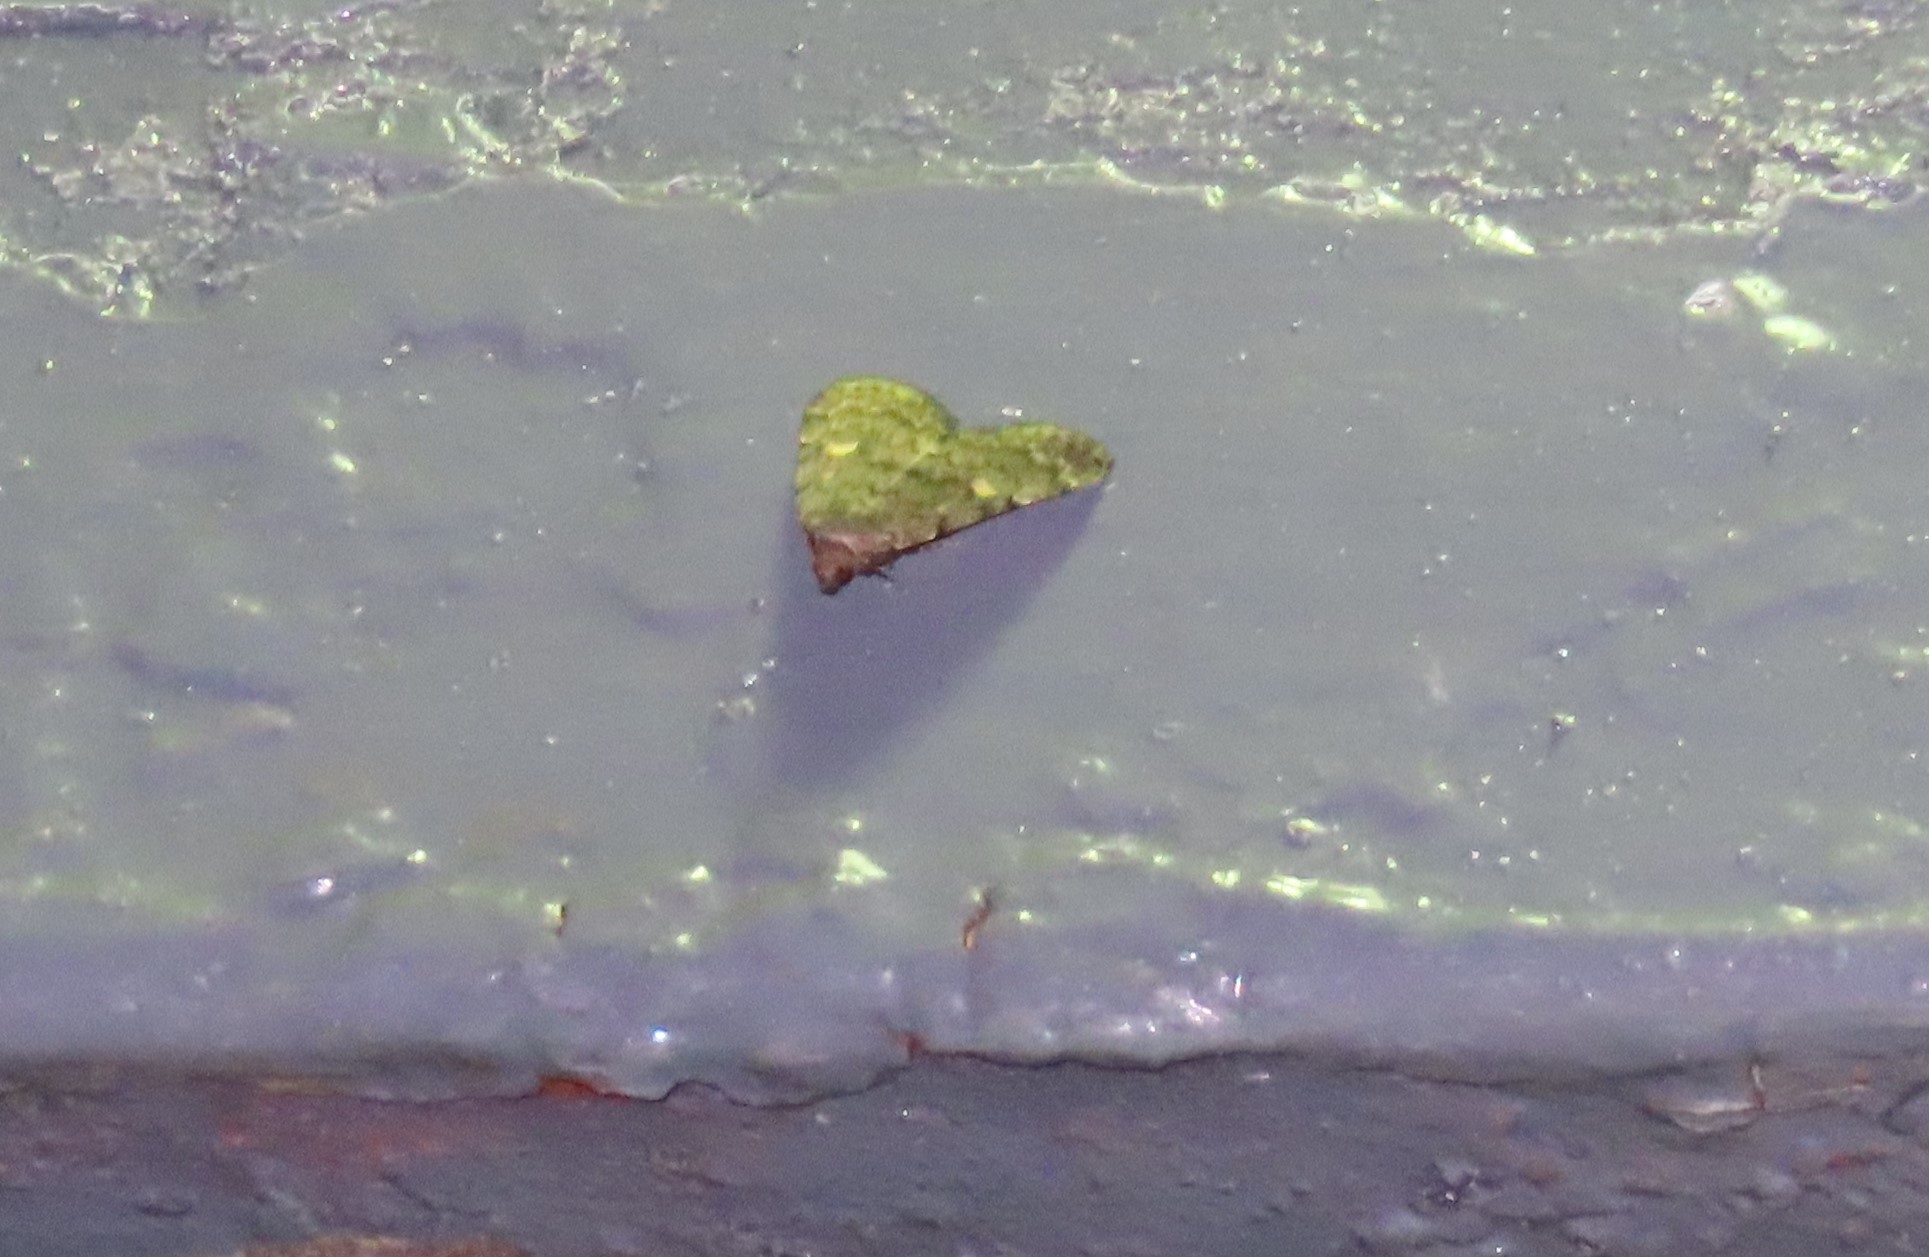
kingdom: Animalia
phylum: Arthropoda
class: Insecta
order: Lepidoptera
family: Erebidae
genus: Idia
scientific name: Idia aemula
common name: Common idia moth
